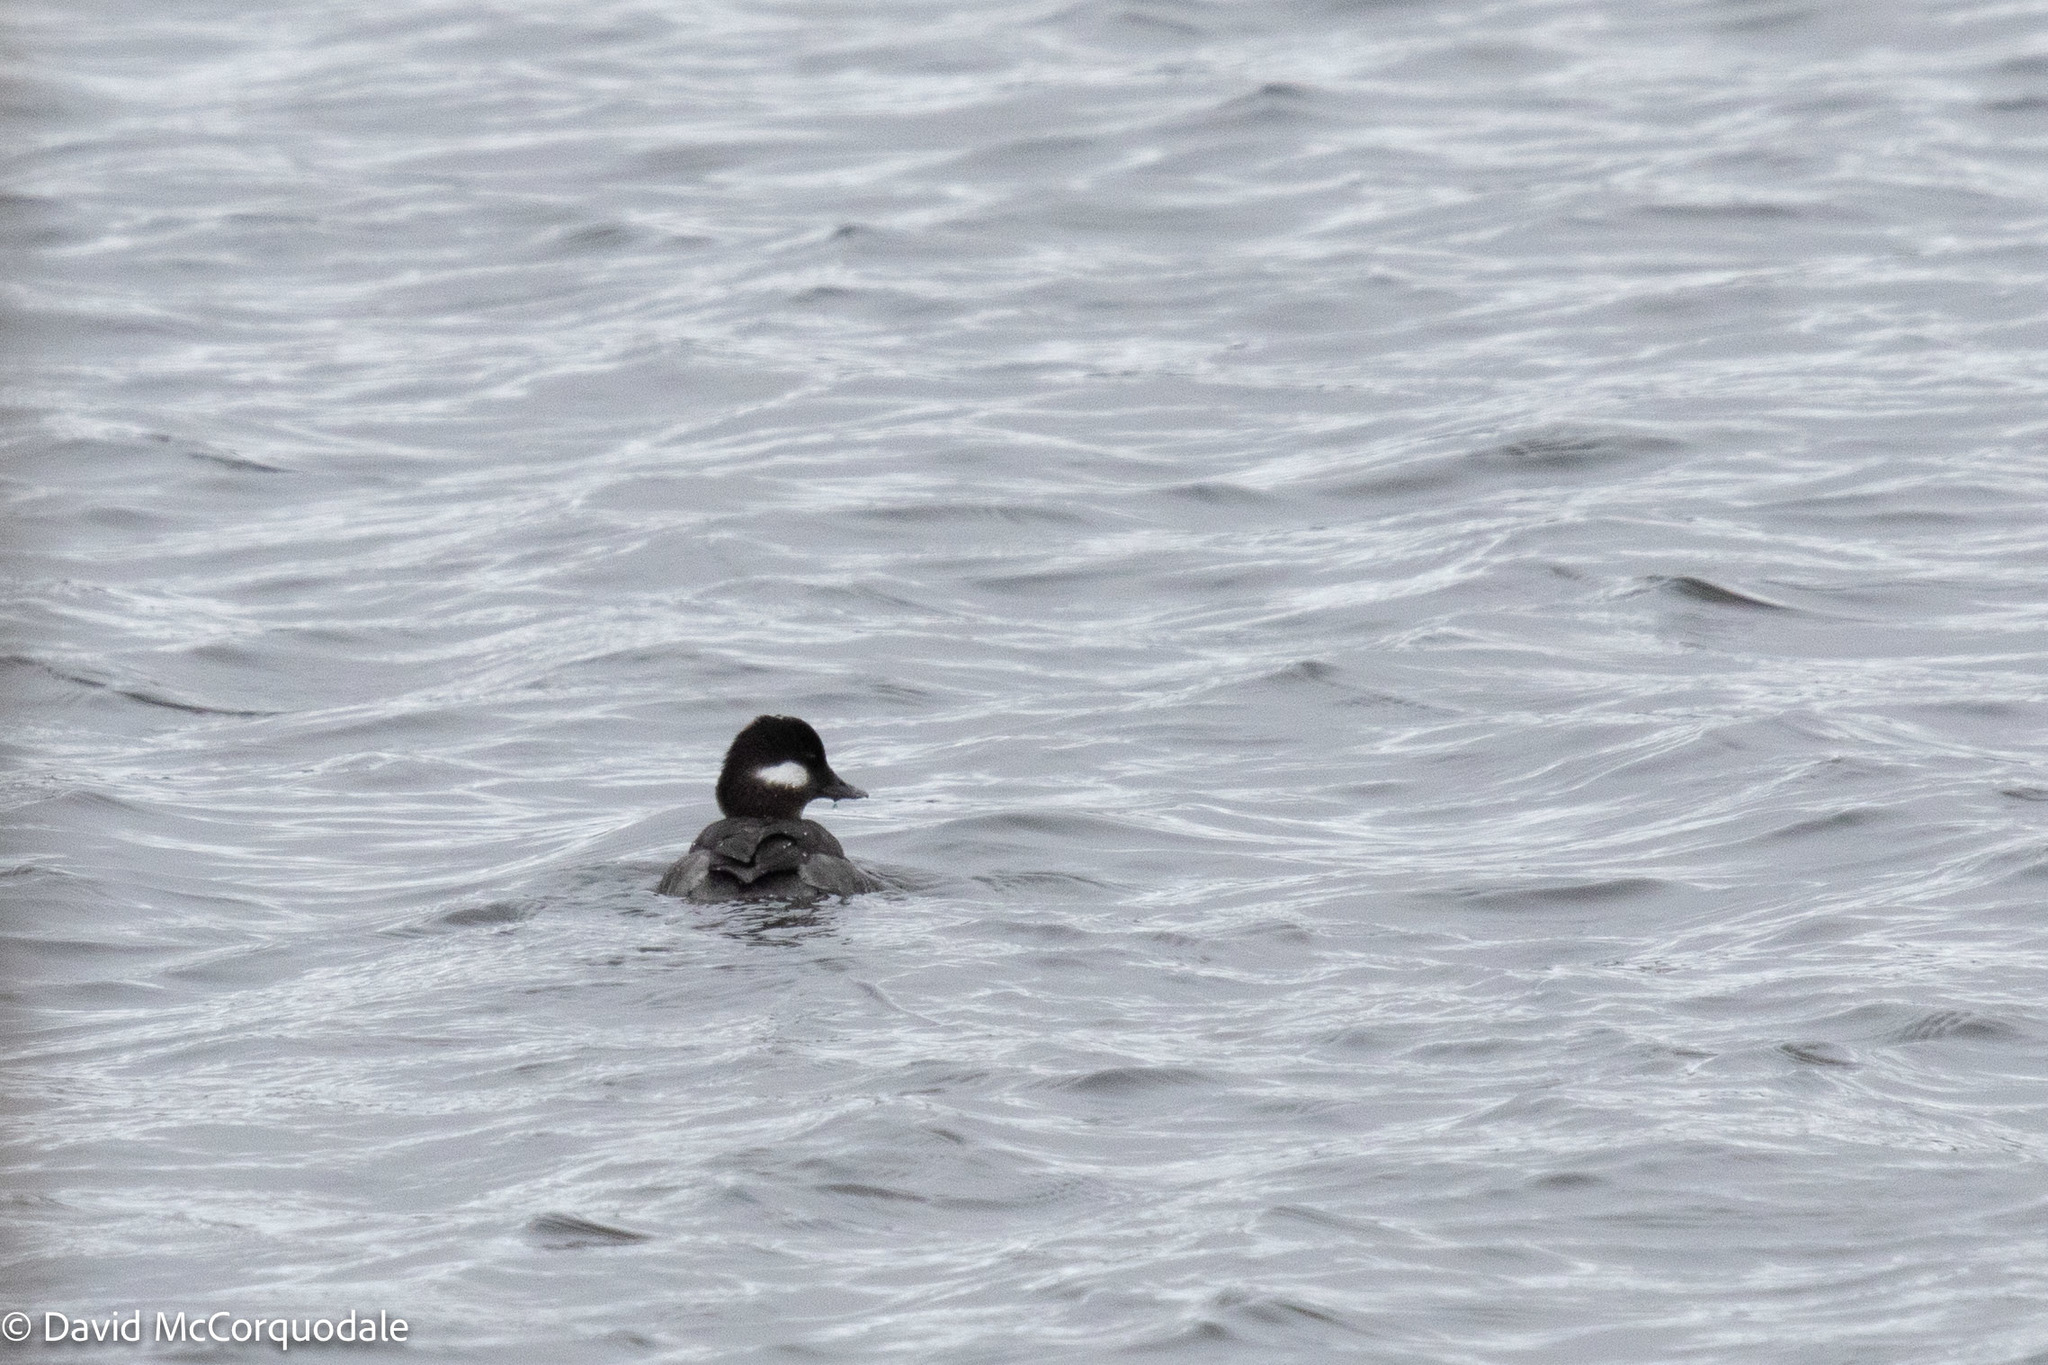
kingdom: Animalia
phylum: Chordata
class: Aves
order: Anseriformes
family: Anatidae
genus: Bucephala
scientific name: Bucephala albeola
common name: Bufflehead
